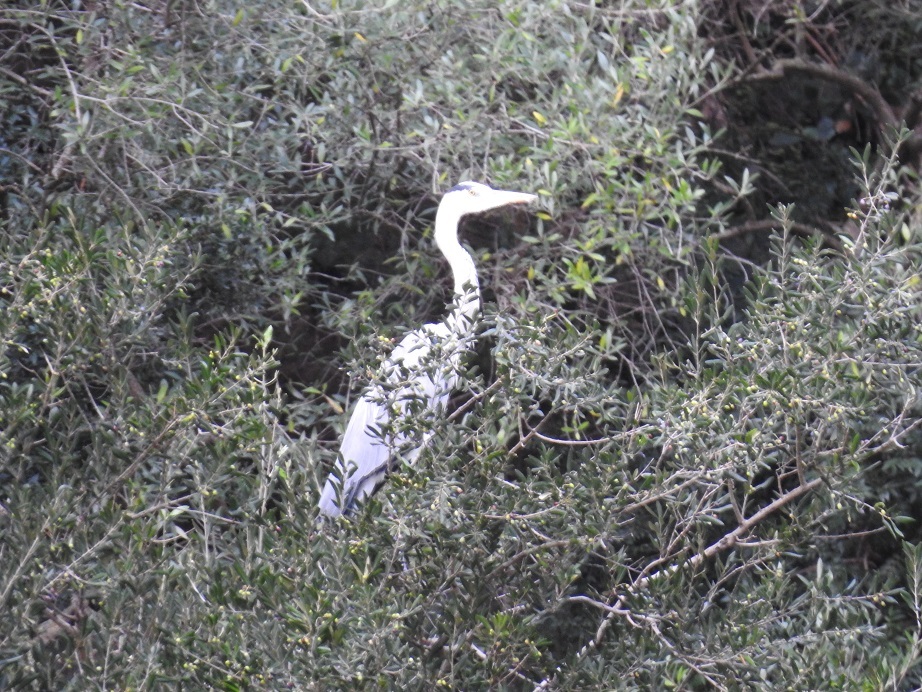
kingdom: Animalia
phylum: Chordata
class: Aves
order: Pelecaniformes
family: Ardeidae
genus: Ardea
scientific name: Ardea cinerea
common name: Grey heron
